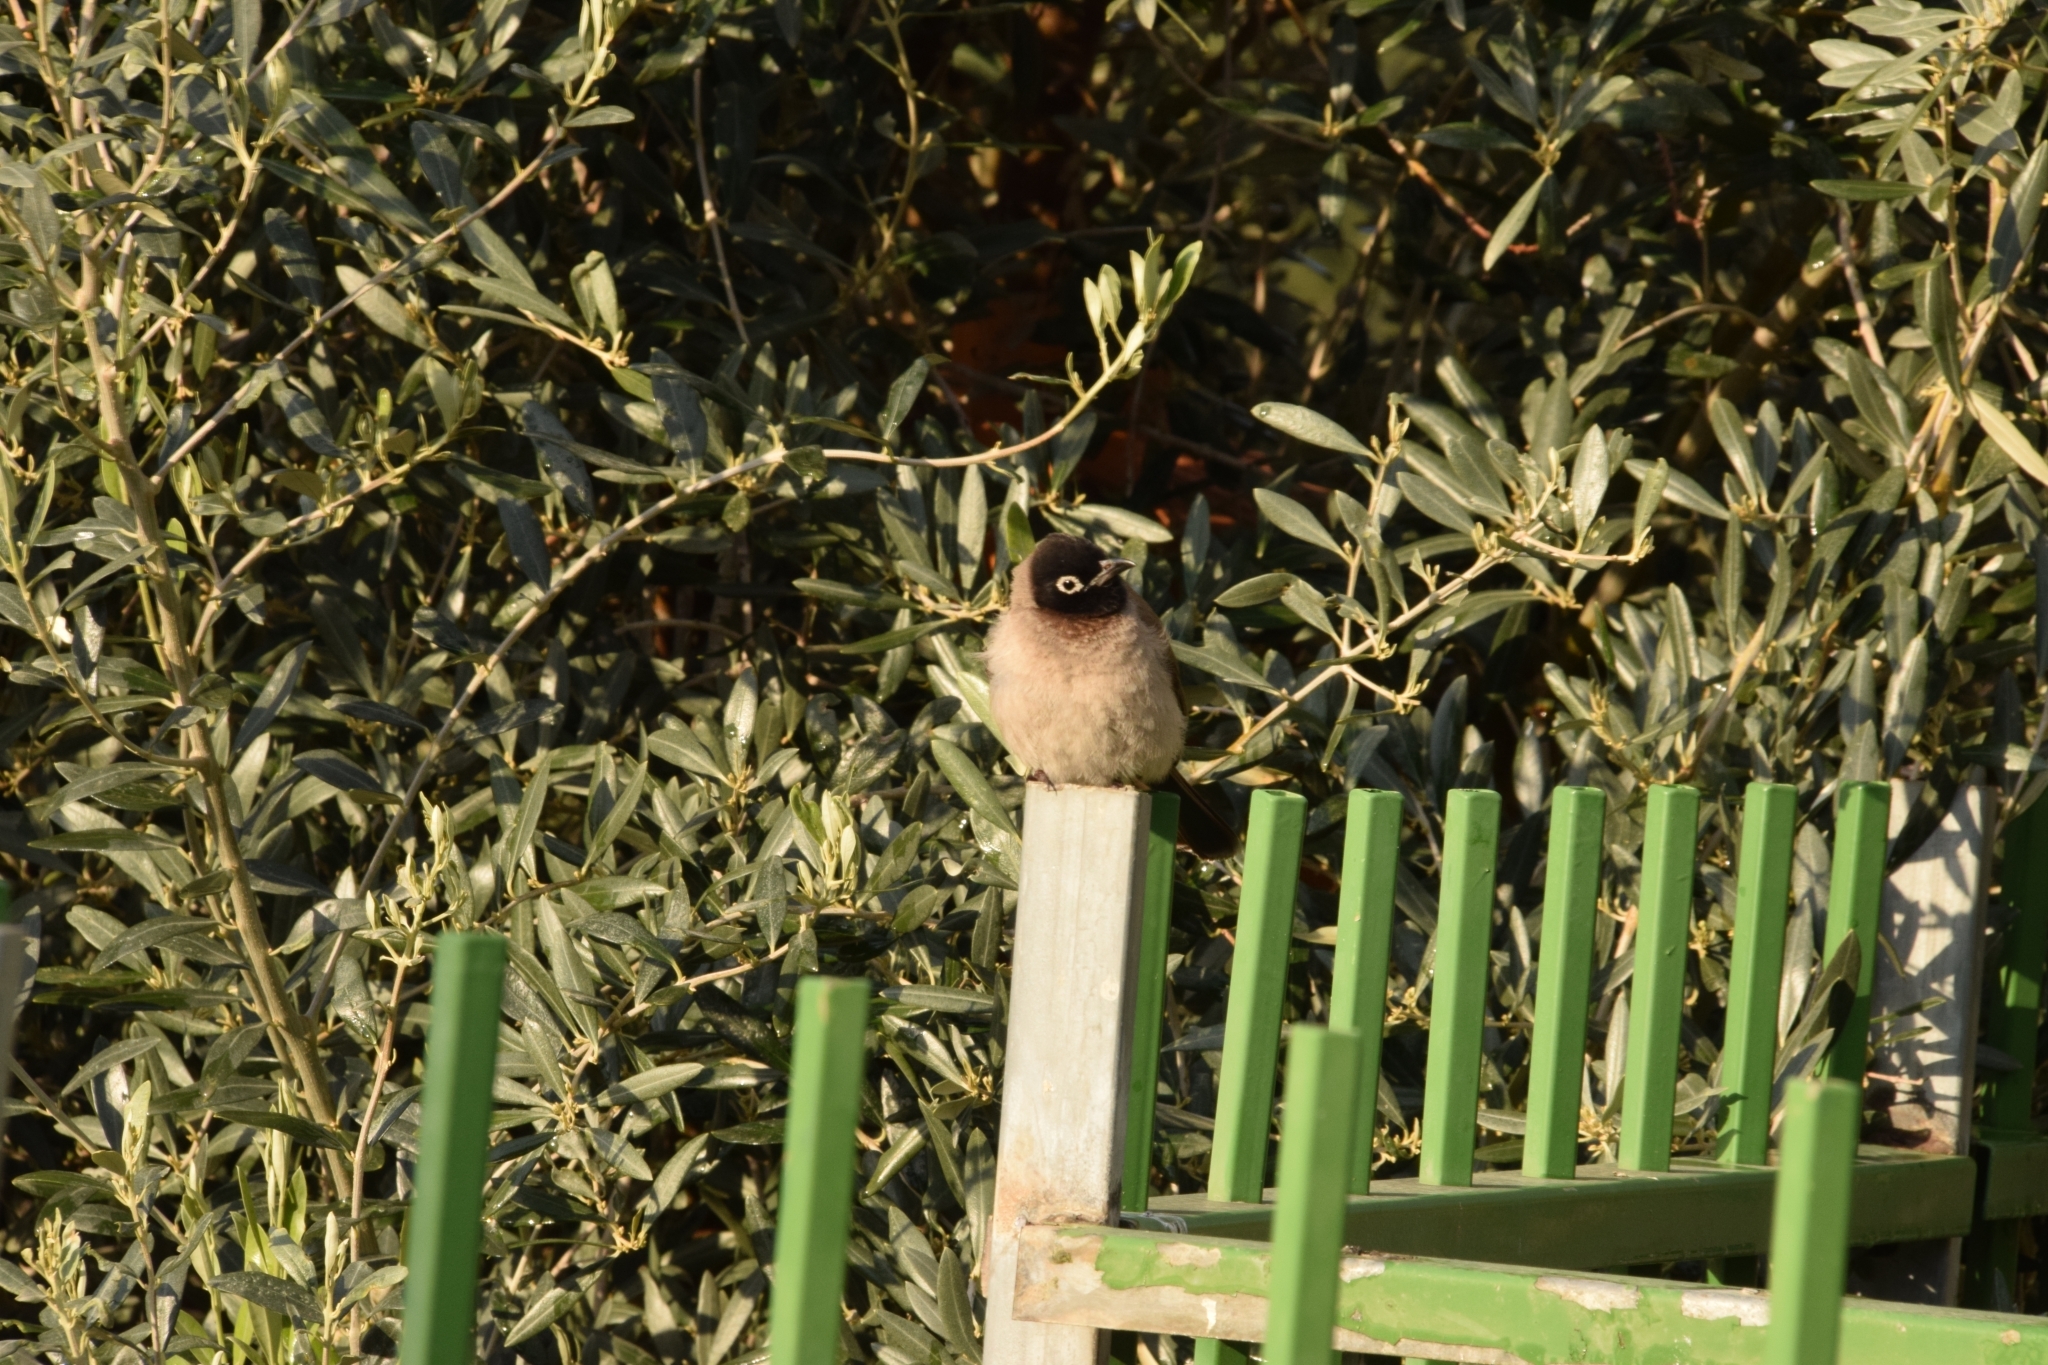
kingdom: Animalia
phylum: Chordata
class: Aves
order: Passeriformes
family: Pycnonotidae
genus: Pycnonotus
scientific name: Pycnonotus xanthopygos
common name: White-spectacled bulbul
